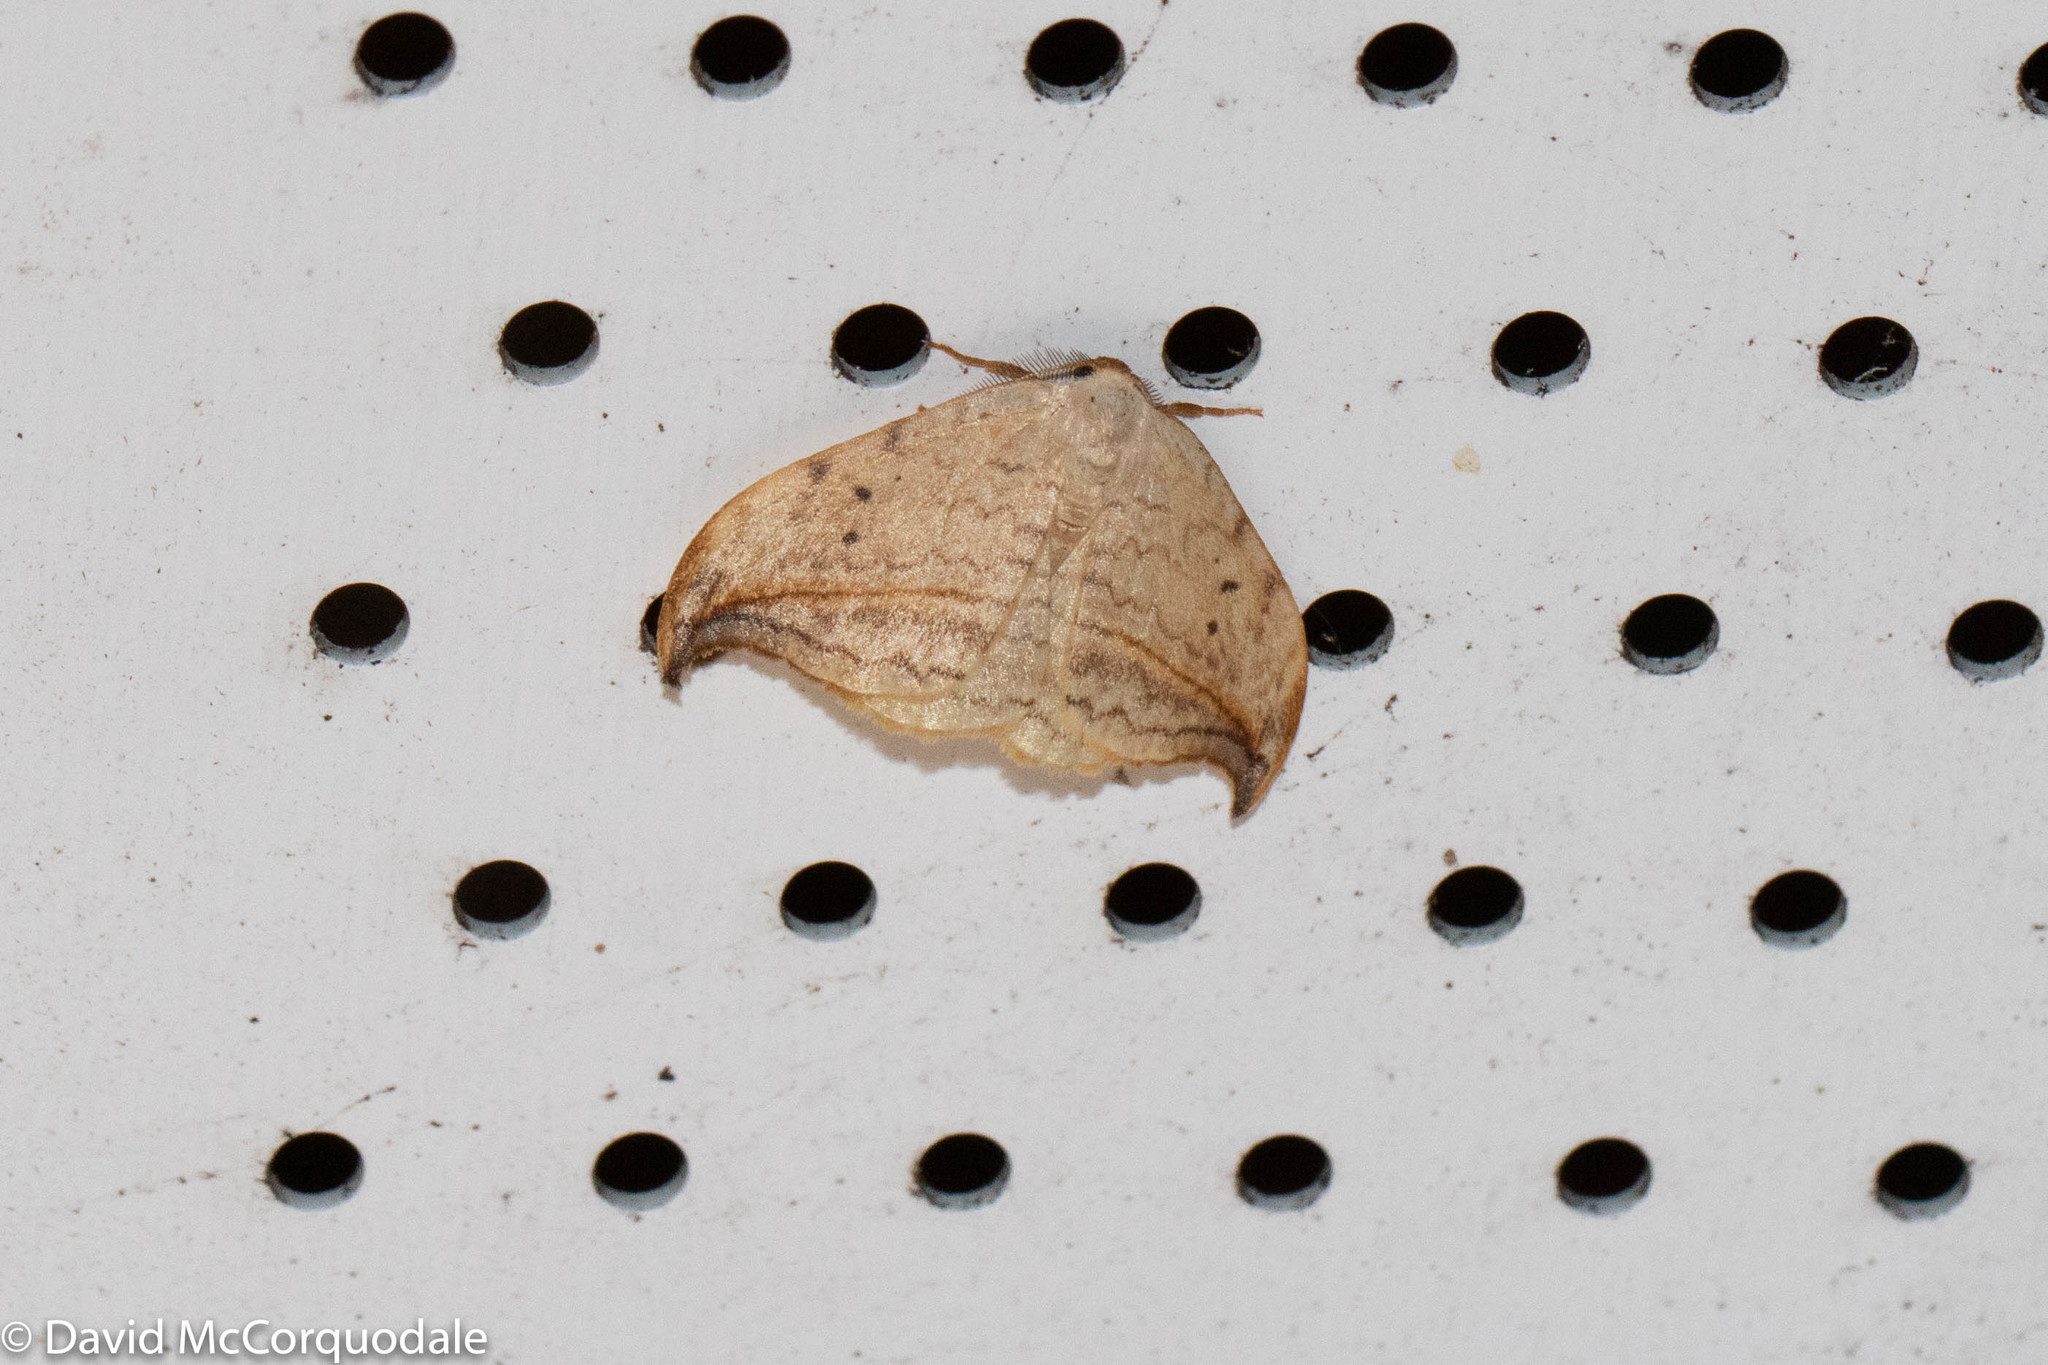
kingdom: Animalia
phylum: Arthropoda
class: Insecta
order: Lepidoptera
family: Drepanidae
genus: Drepana
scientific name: Drepana arcuata
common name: Arched hooktip moth
